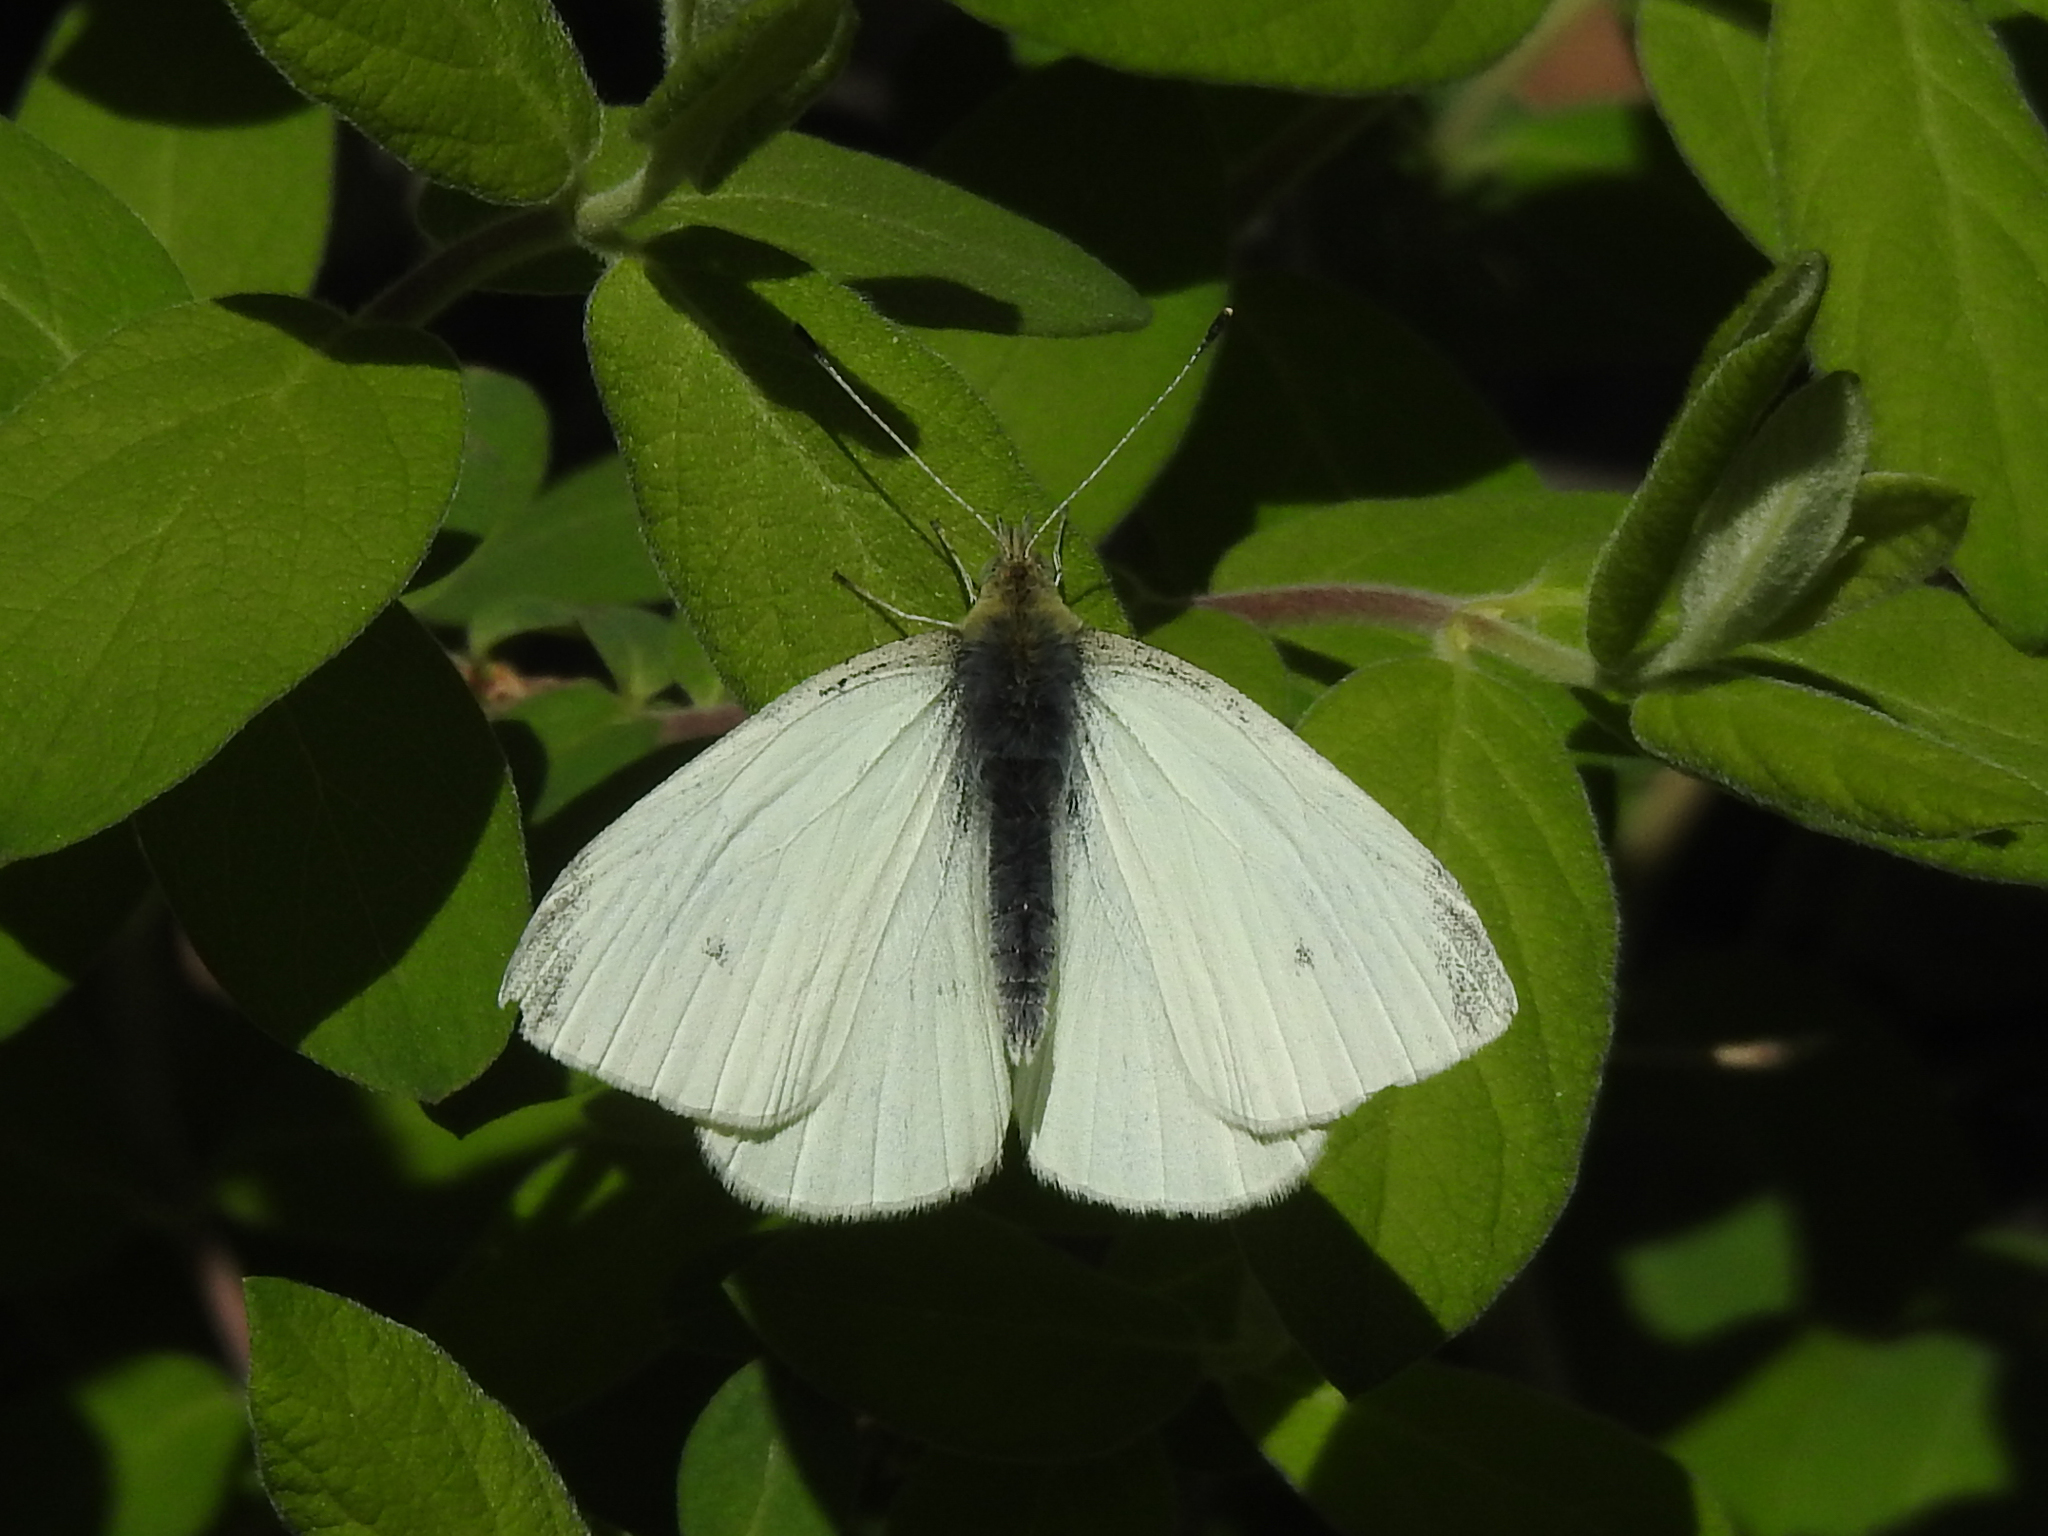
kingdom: Animalia
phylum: Arthropoda
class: Insecta
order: Lepidoptera
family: Pieridae
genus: Pieris
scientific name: Pieris rapae
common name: Small white
